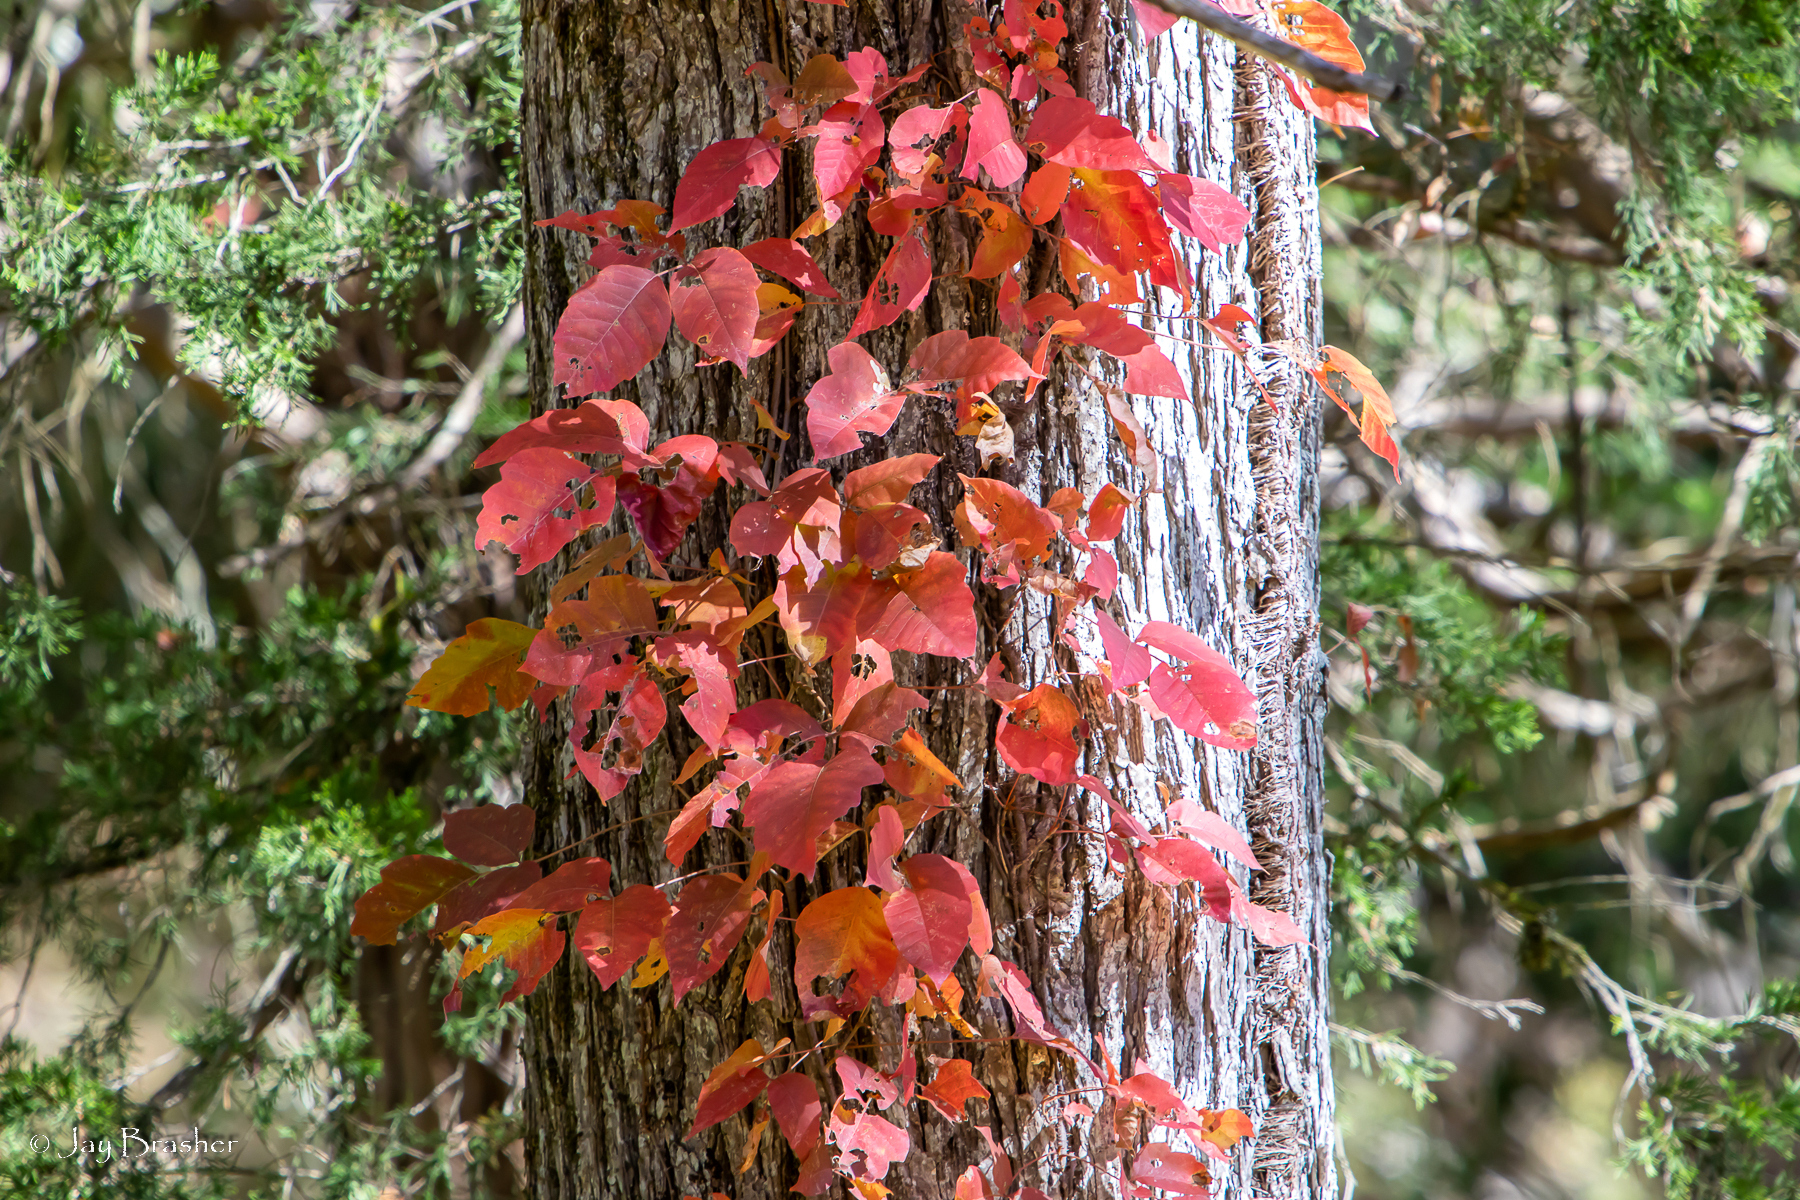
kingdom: Plantae
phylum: Tracheophyta
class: Magnoliopsida
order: Sapindales
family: Anacardiaceae
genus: Toxicodendron
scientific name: Toxicodendron radicans
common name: Poison ivy
